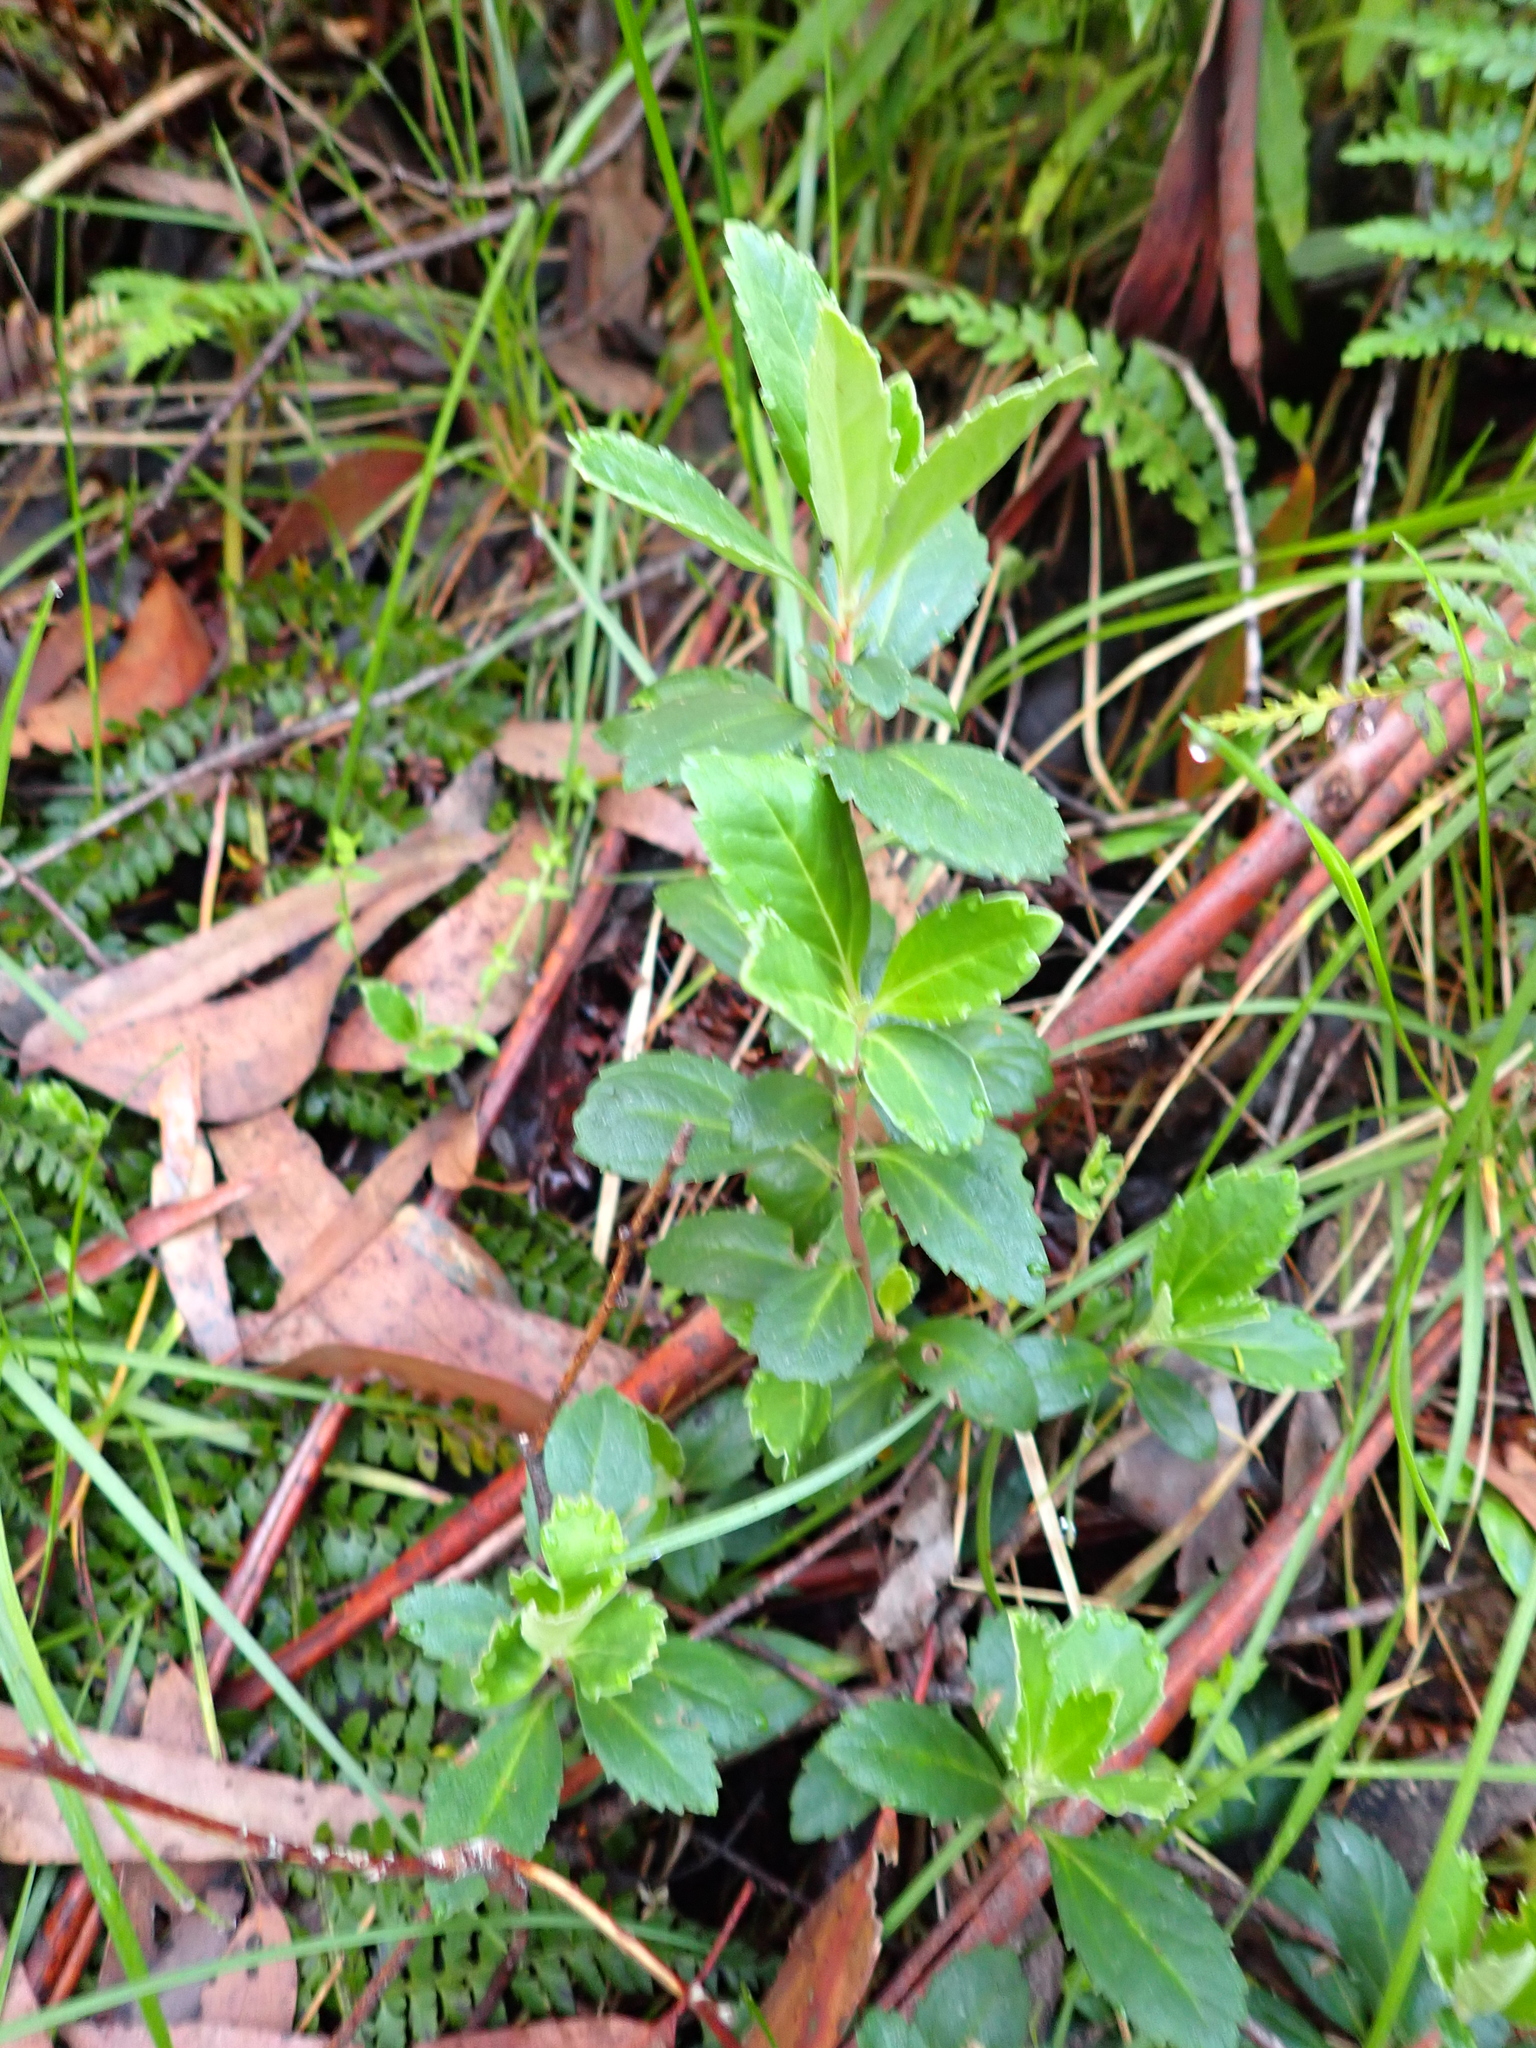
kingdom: Plantae
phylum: Tracheophyta
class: Magnoliopsida
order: Asterales
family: Alseuosmiaceae
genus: Wittsteinia
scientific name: Wittsteinia vacciniacea
